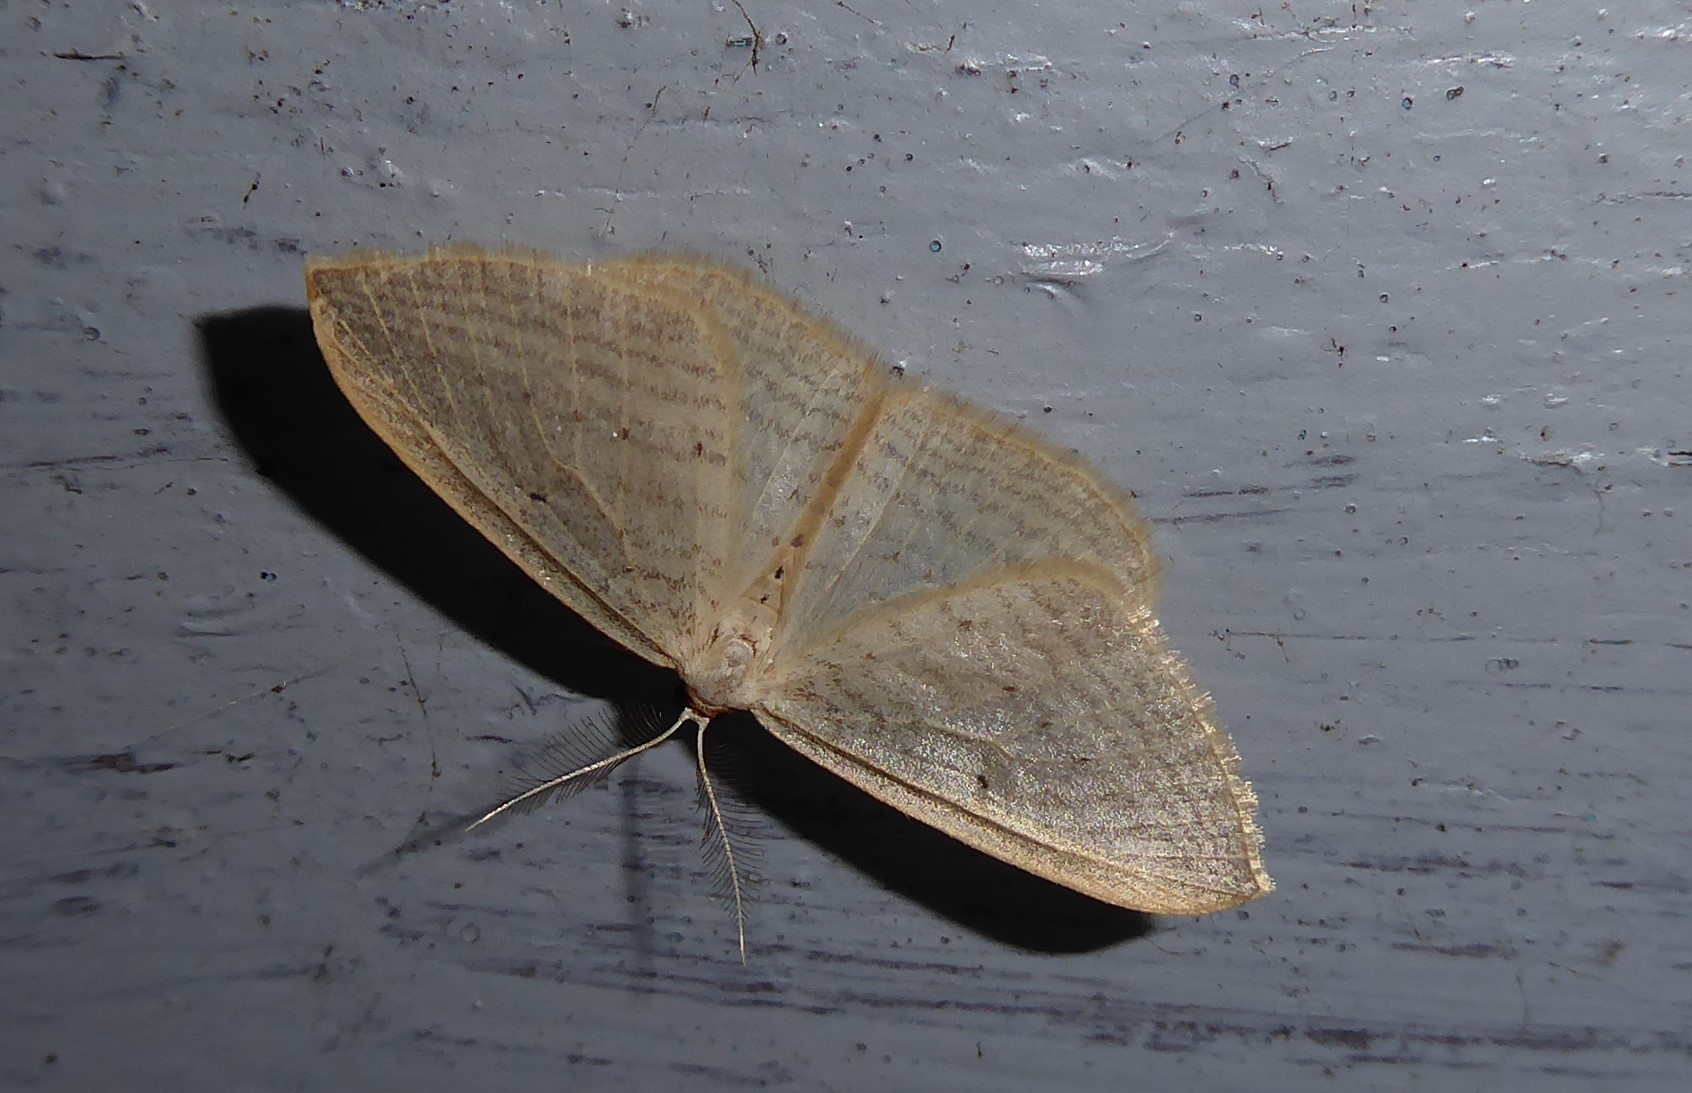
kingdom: Animalia
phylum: Arthropoda
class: Insecta
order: Lepidoptera
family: Geometridae
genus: Orthoclydon
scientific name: Orthoclydon praefectata
